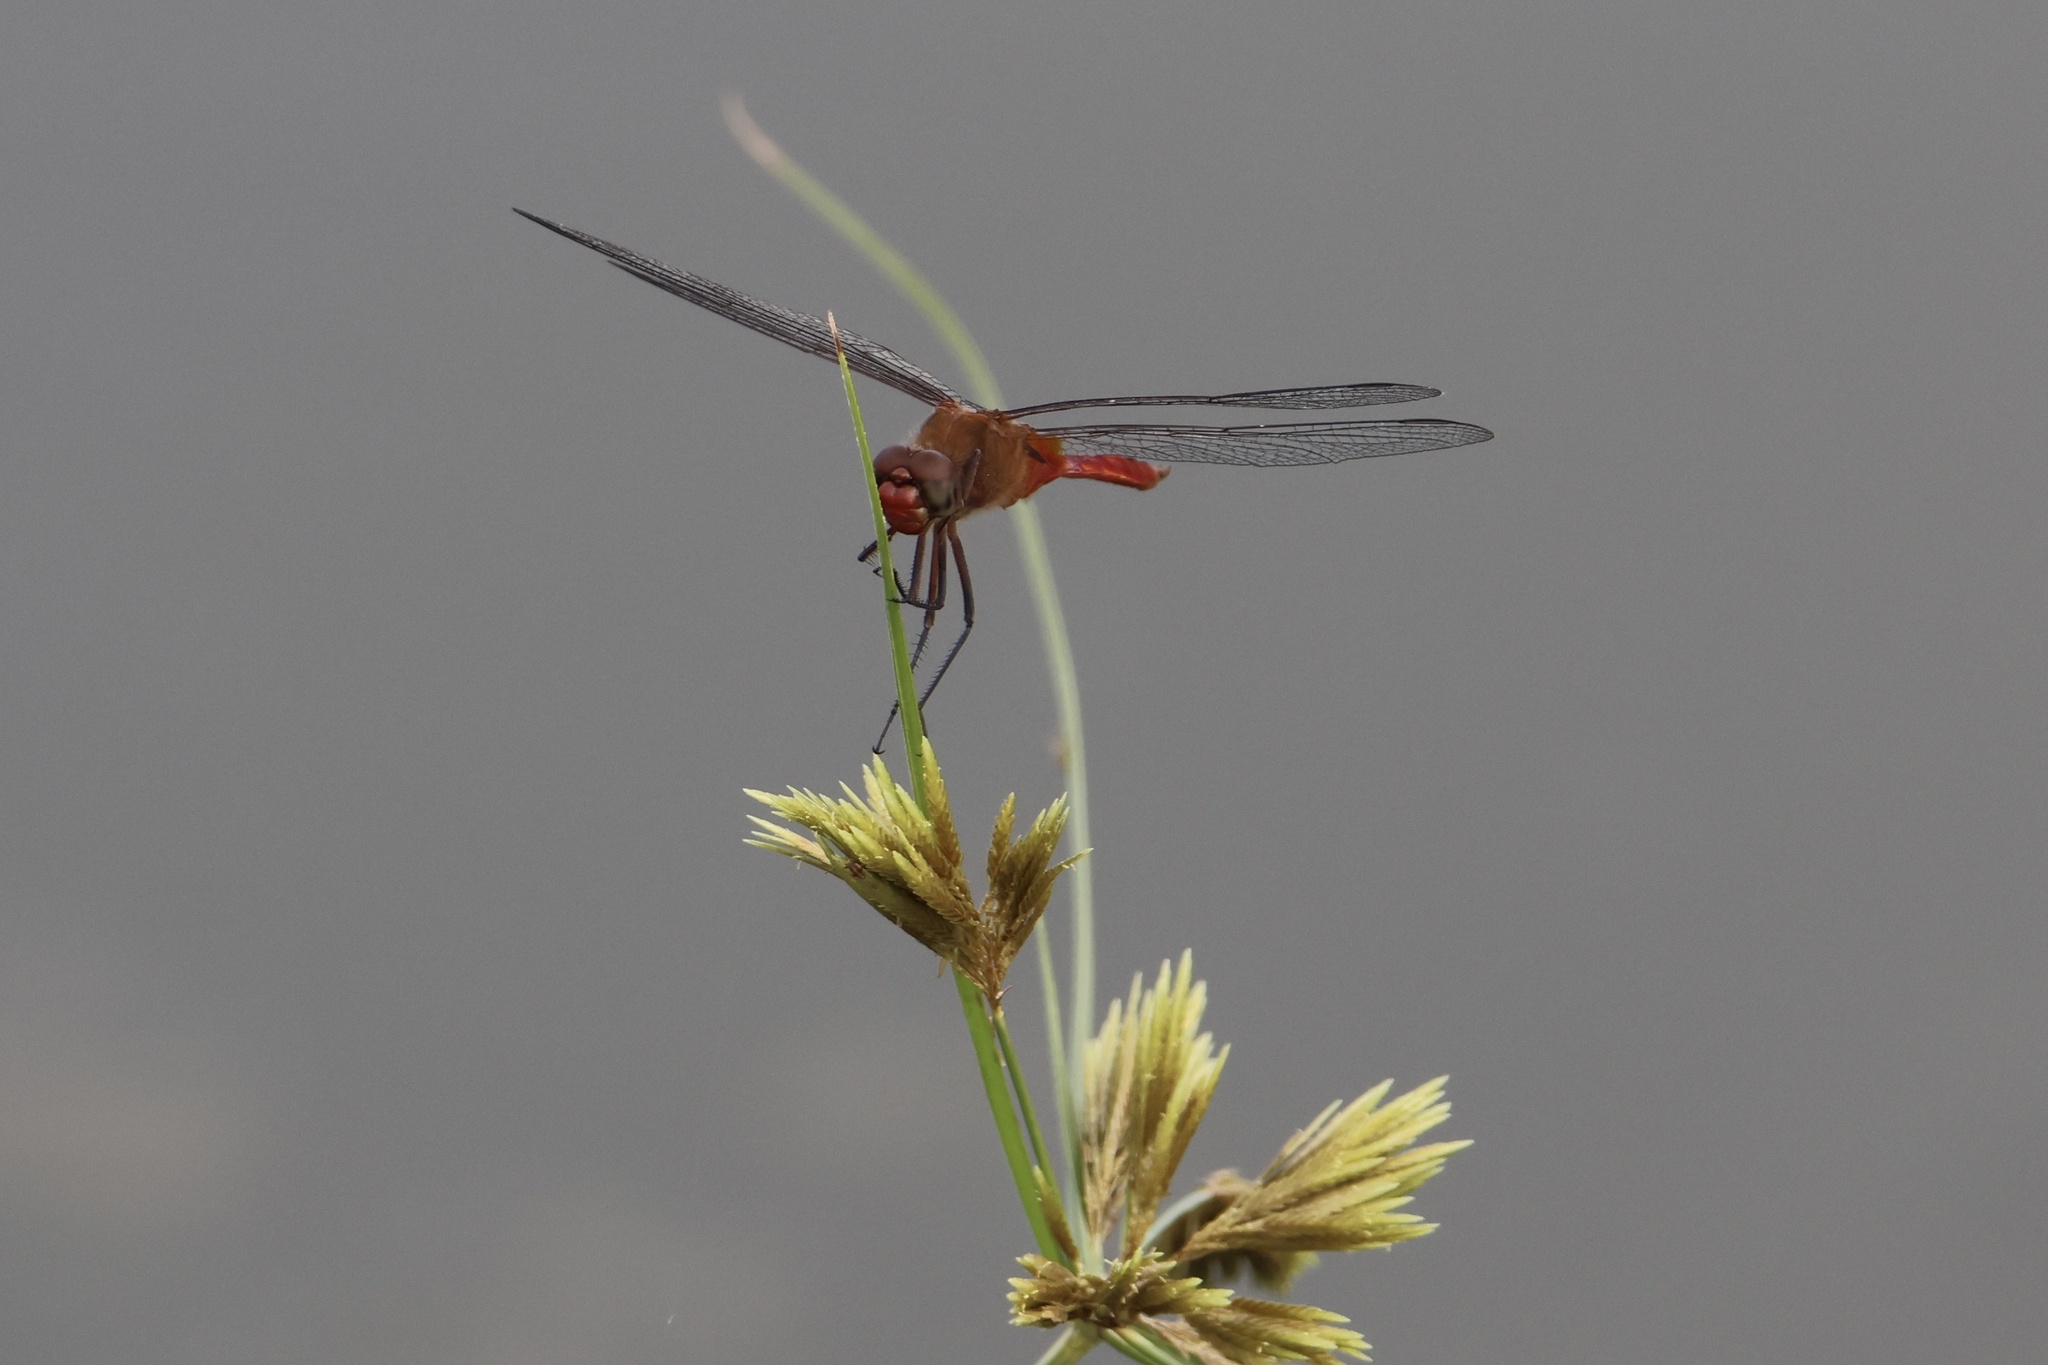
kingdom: Animalia
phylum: Arthropoda
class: Insecta
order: Odonata
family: Libellulidae
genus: Brachymesia
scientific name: Brachymesia furcata
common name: Red-taled pennant
